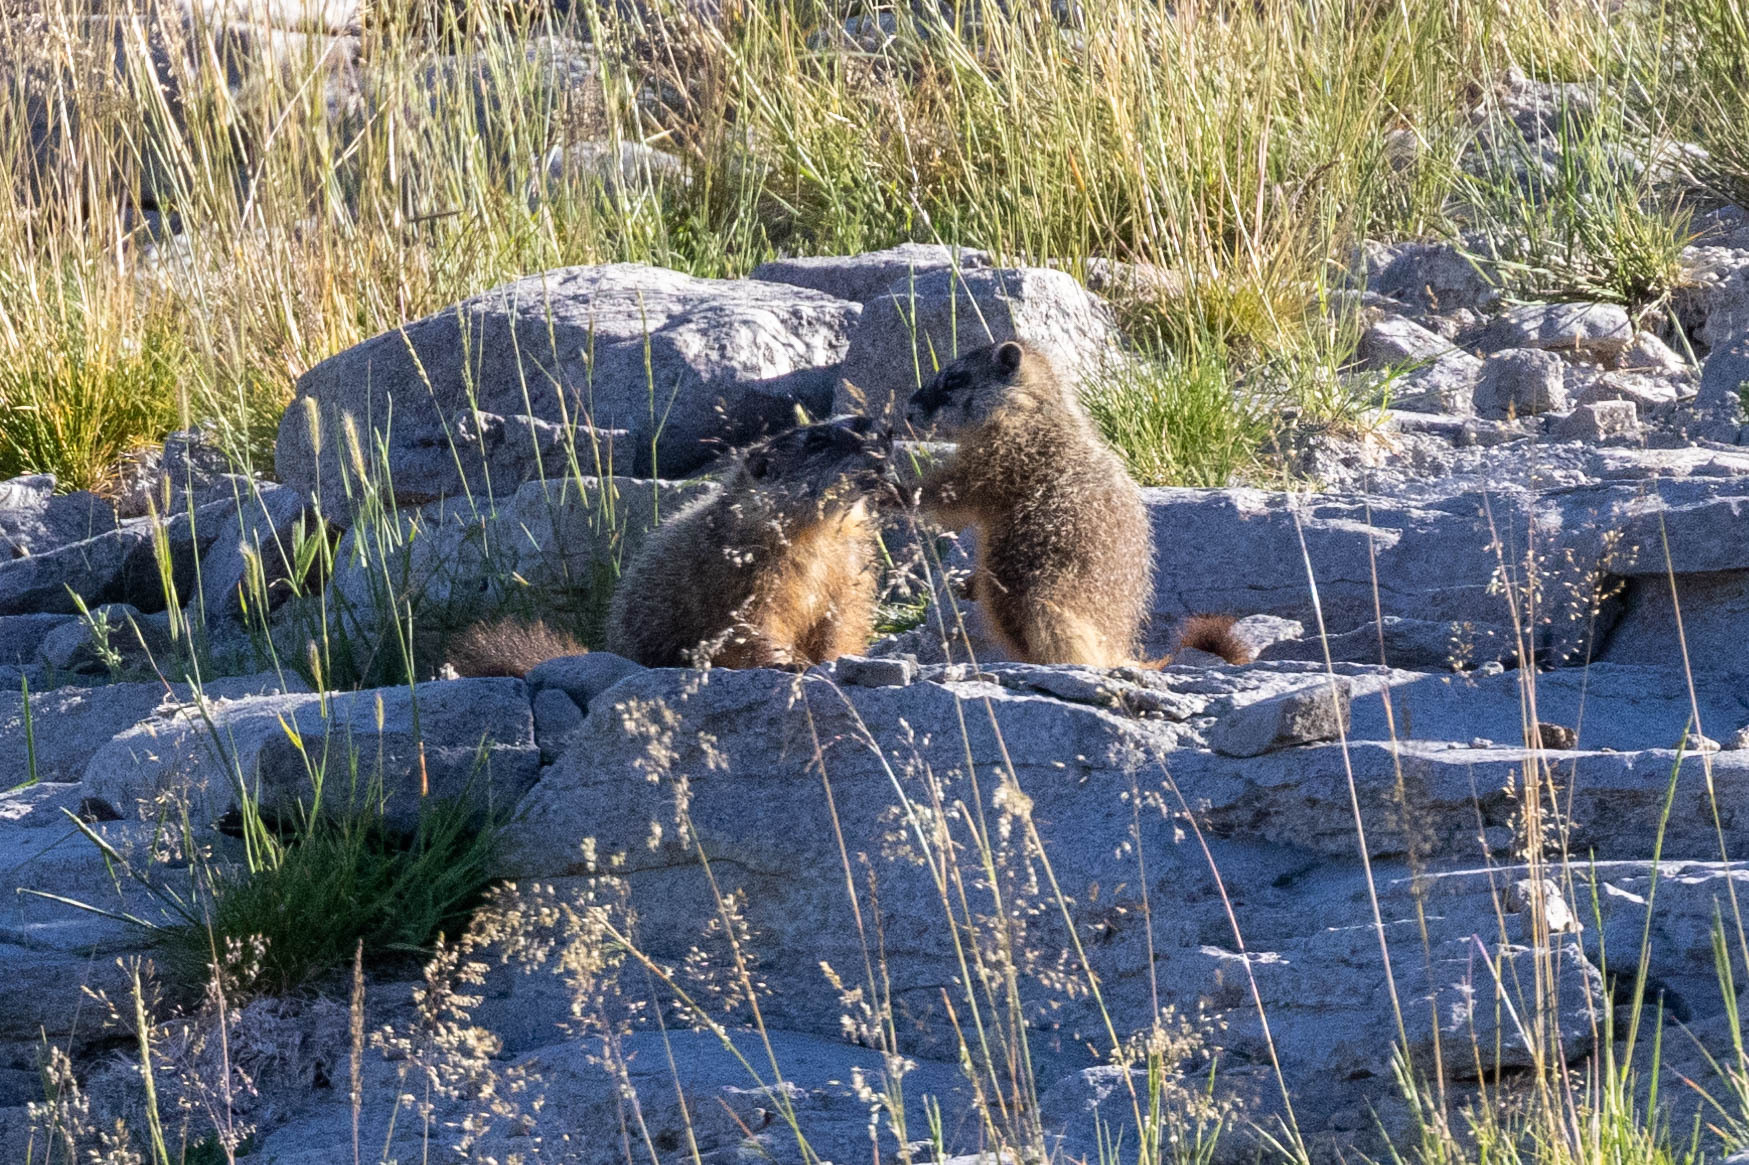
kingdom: Animalia
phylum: Chordata
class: Mammalia
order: Rodentia
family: Sciuridae
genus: Marmota
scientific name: Marmota flaviventris
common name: Yellow-bellied marmot
